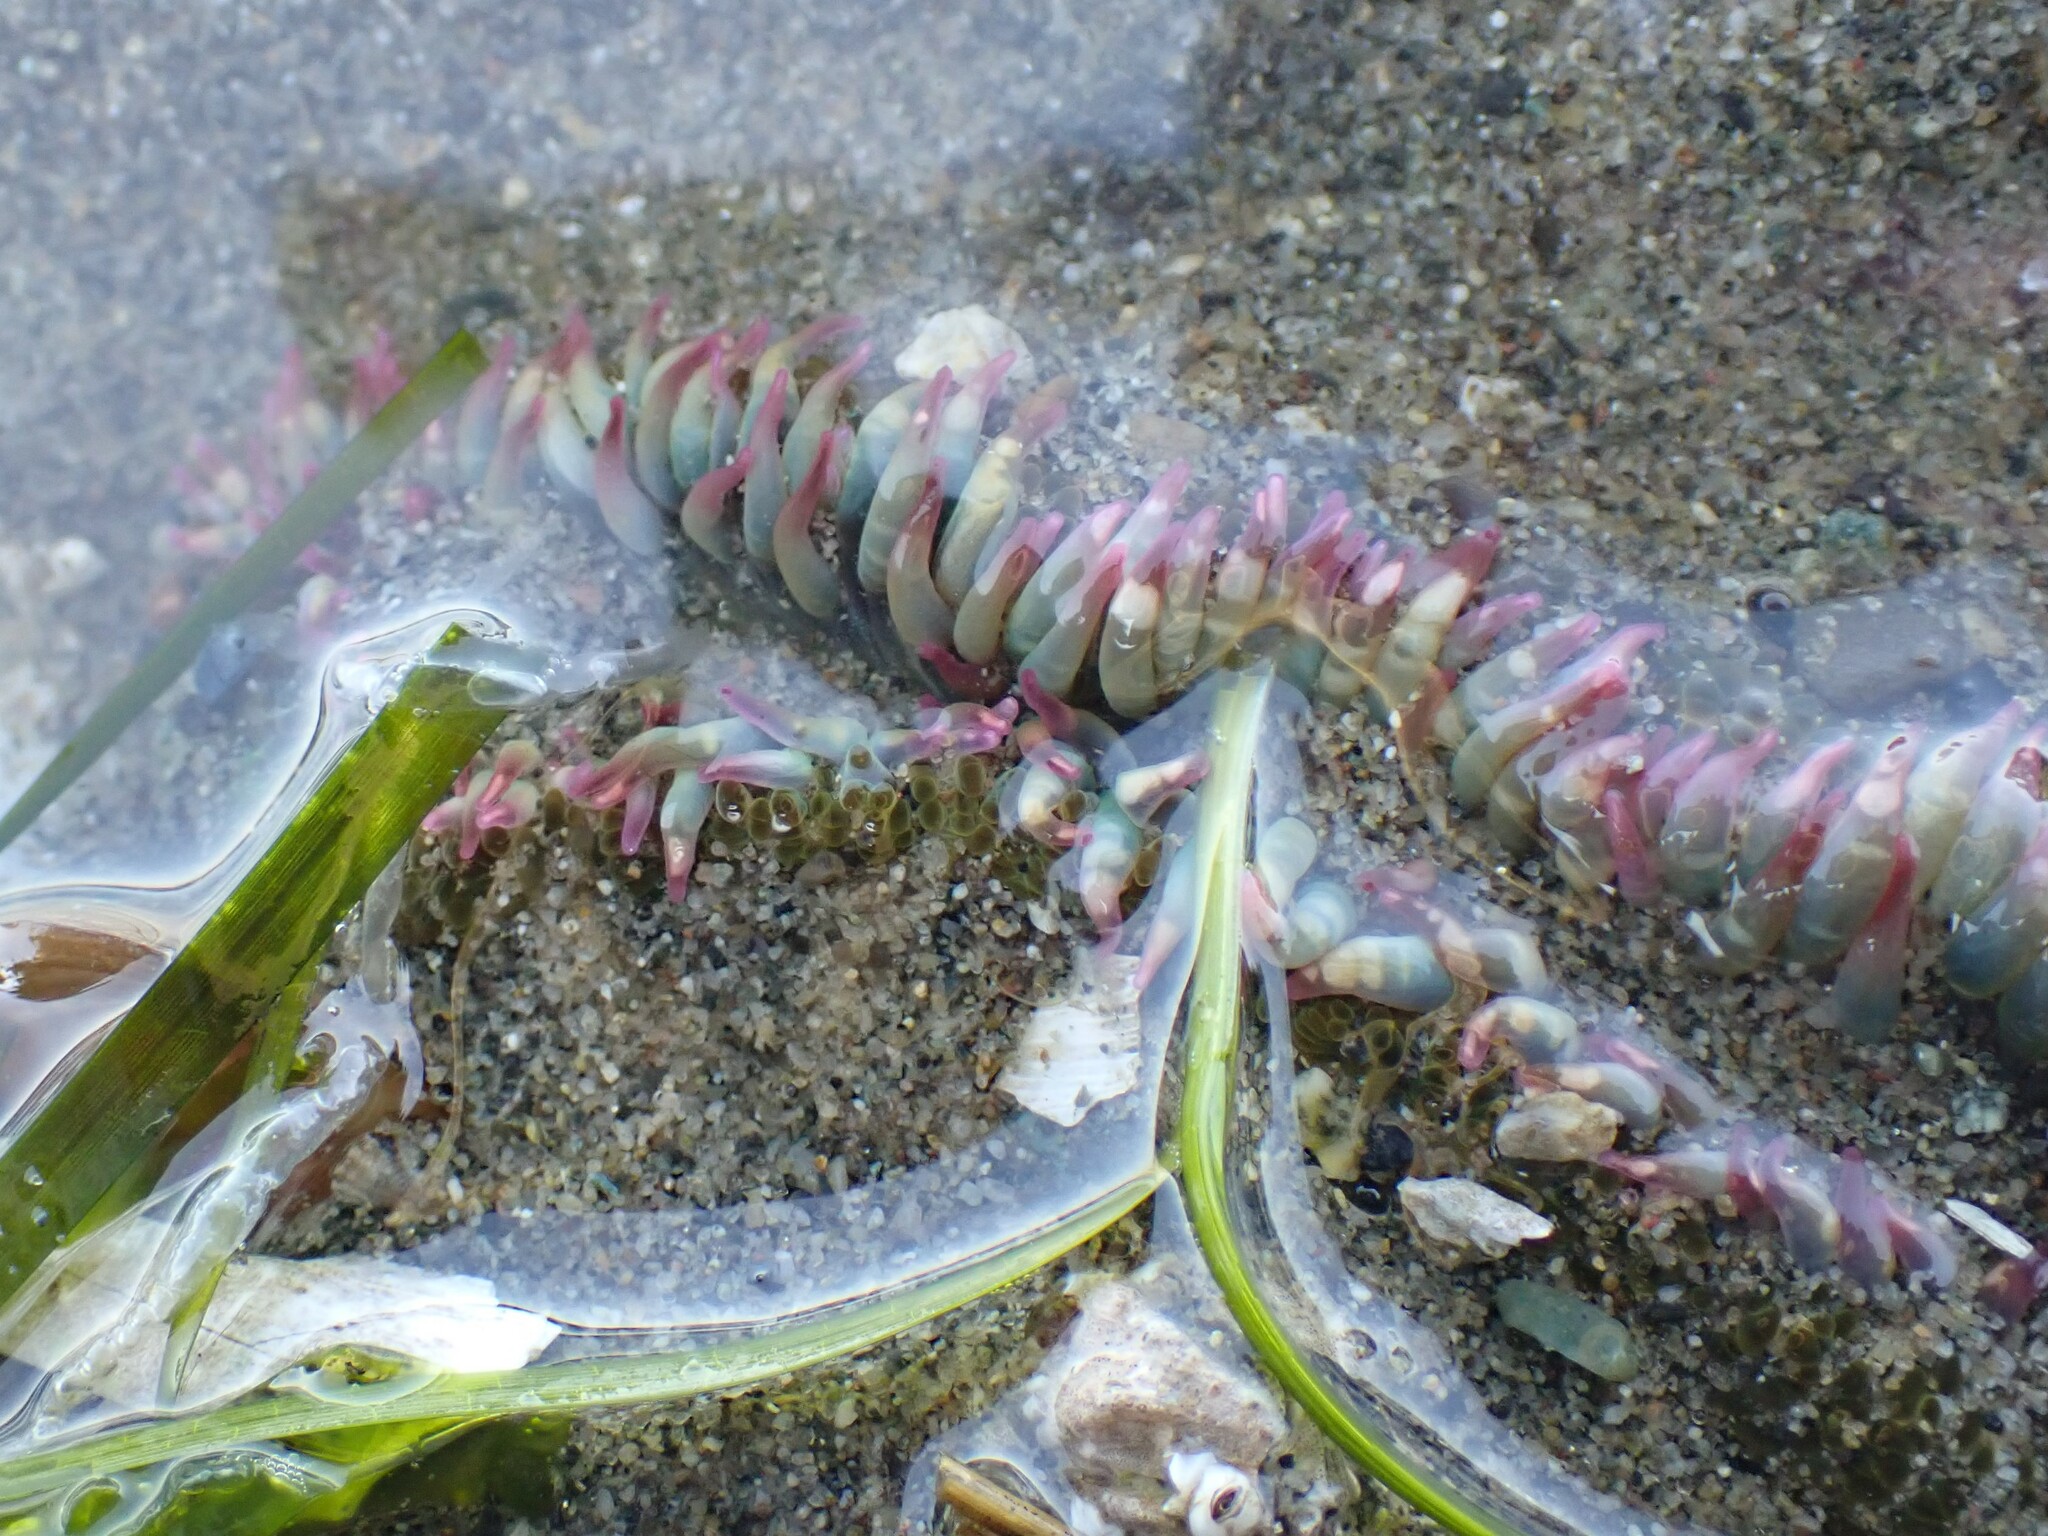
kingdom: Animalia
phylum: Cnidaria
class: Anthozoa
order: Actiniaria
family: Actiniidae
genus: Anthopleura
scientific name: Anthopleura elegantissima
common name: Clonal anemone
